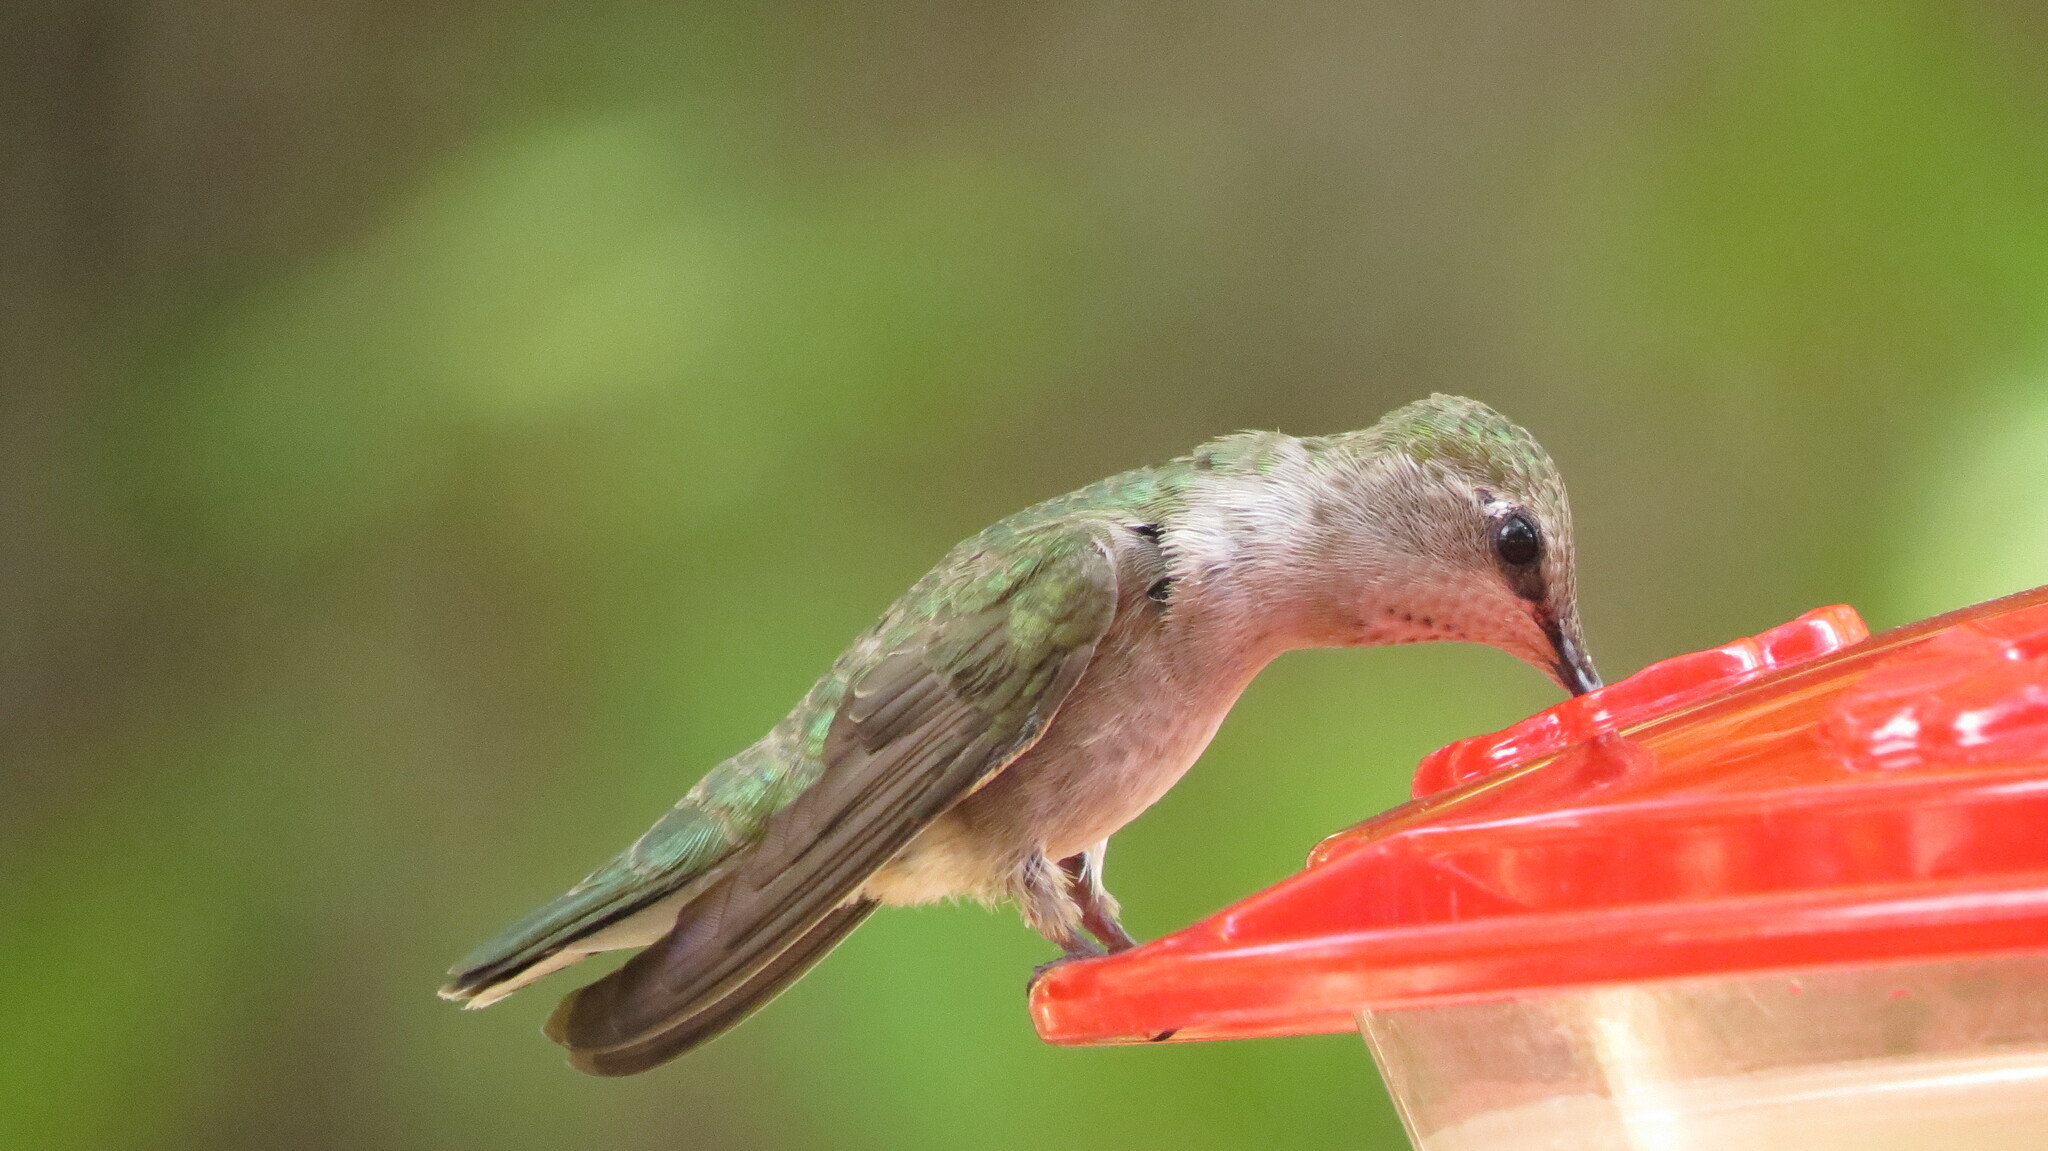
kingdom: Animalia
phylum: Chordata
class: Aves
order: Apodiformes
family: Trochilidae
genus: Archilochus
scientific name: Archilochus alexandri
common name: Black-chinned hummingbird
